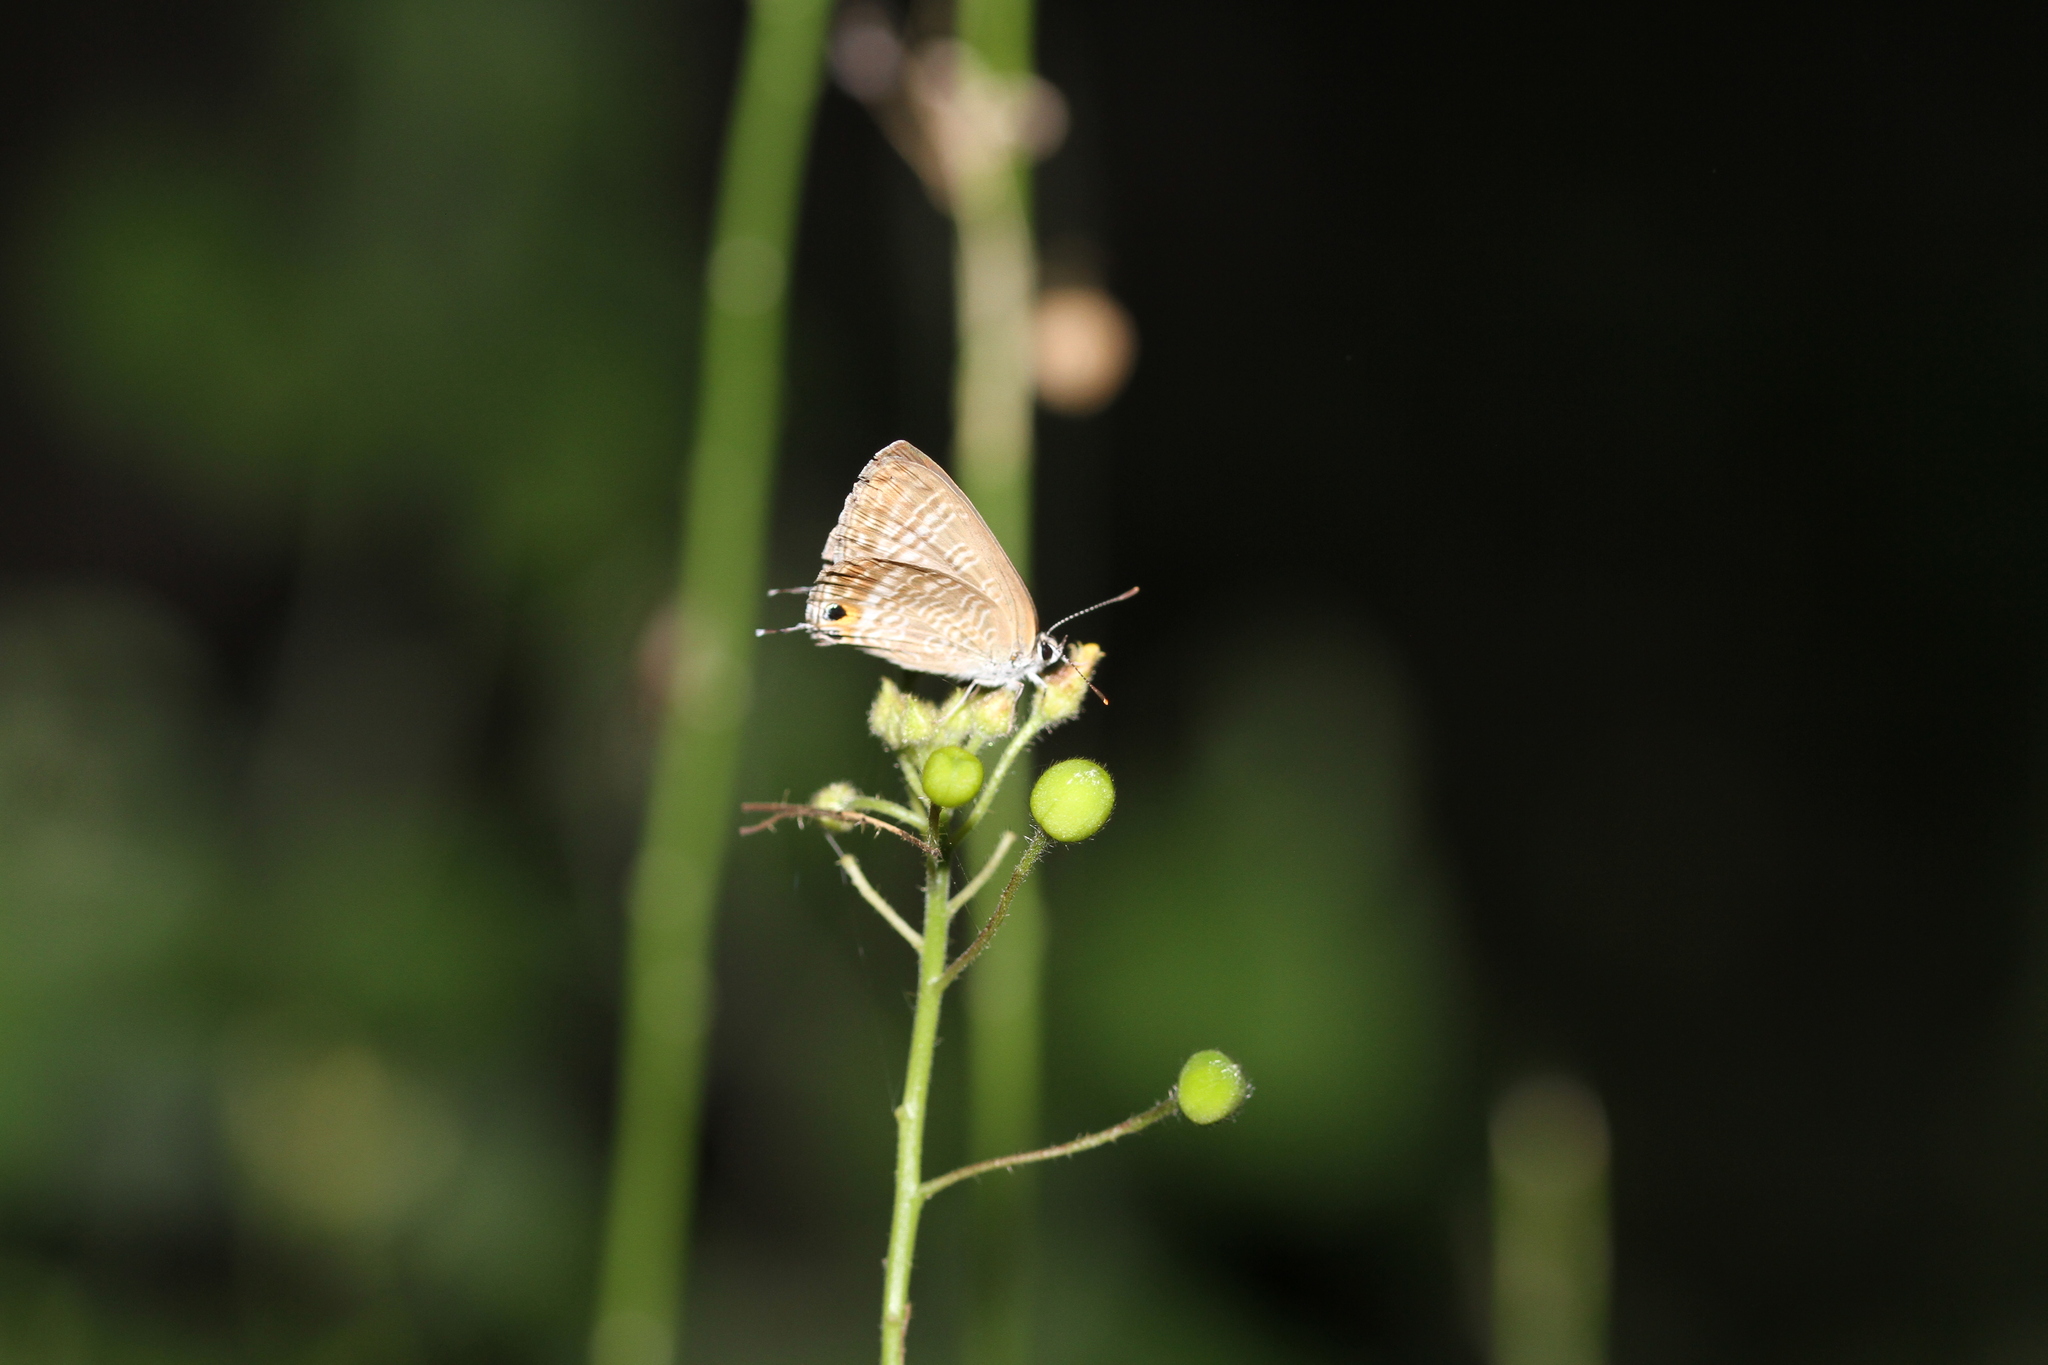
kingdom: Animalia
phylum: Arthropoda
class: Insecta
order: Lepidoptera
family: Lycaenidae
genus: Lampides
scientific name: Lampides boeticus
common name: Long-tailed blue
